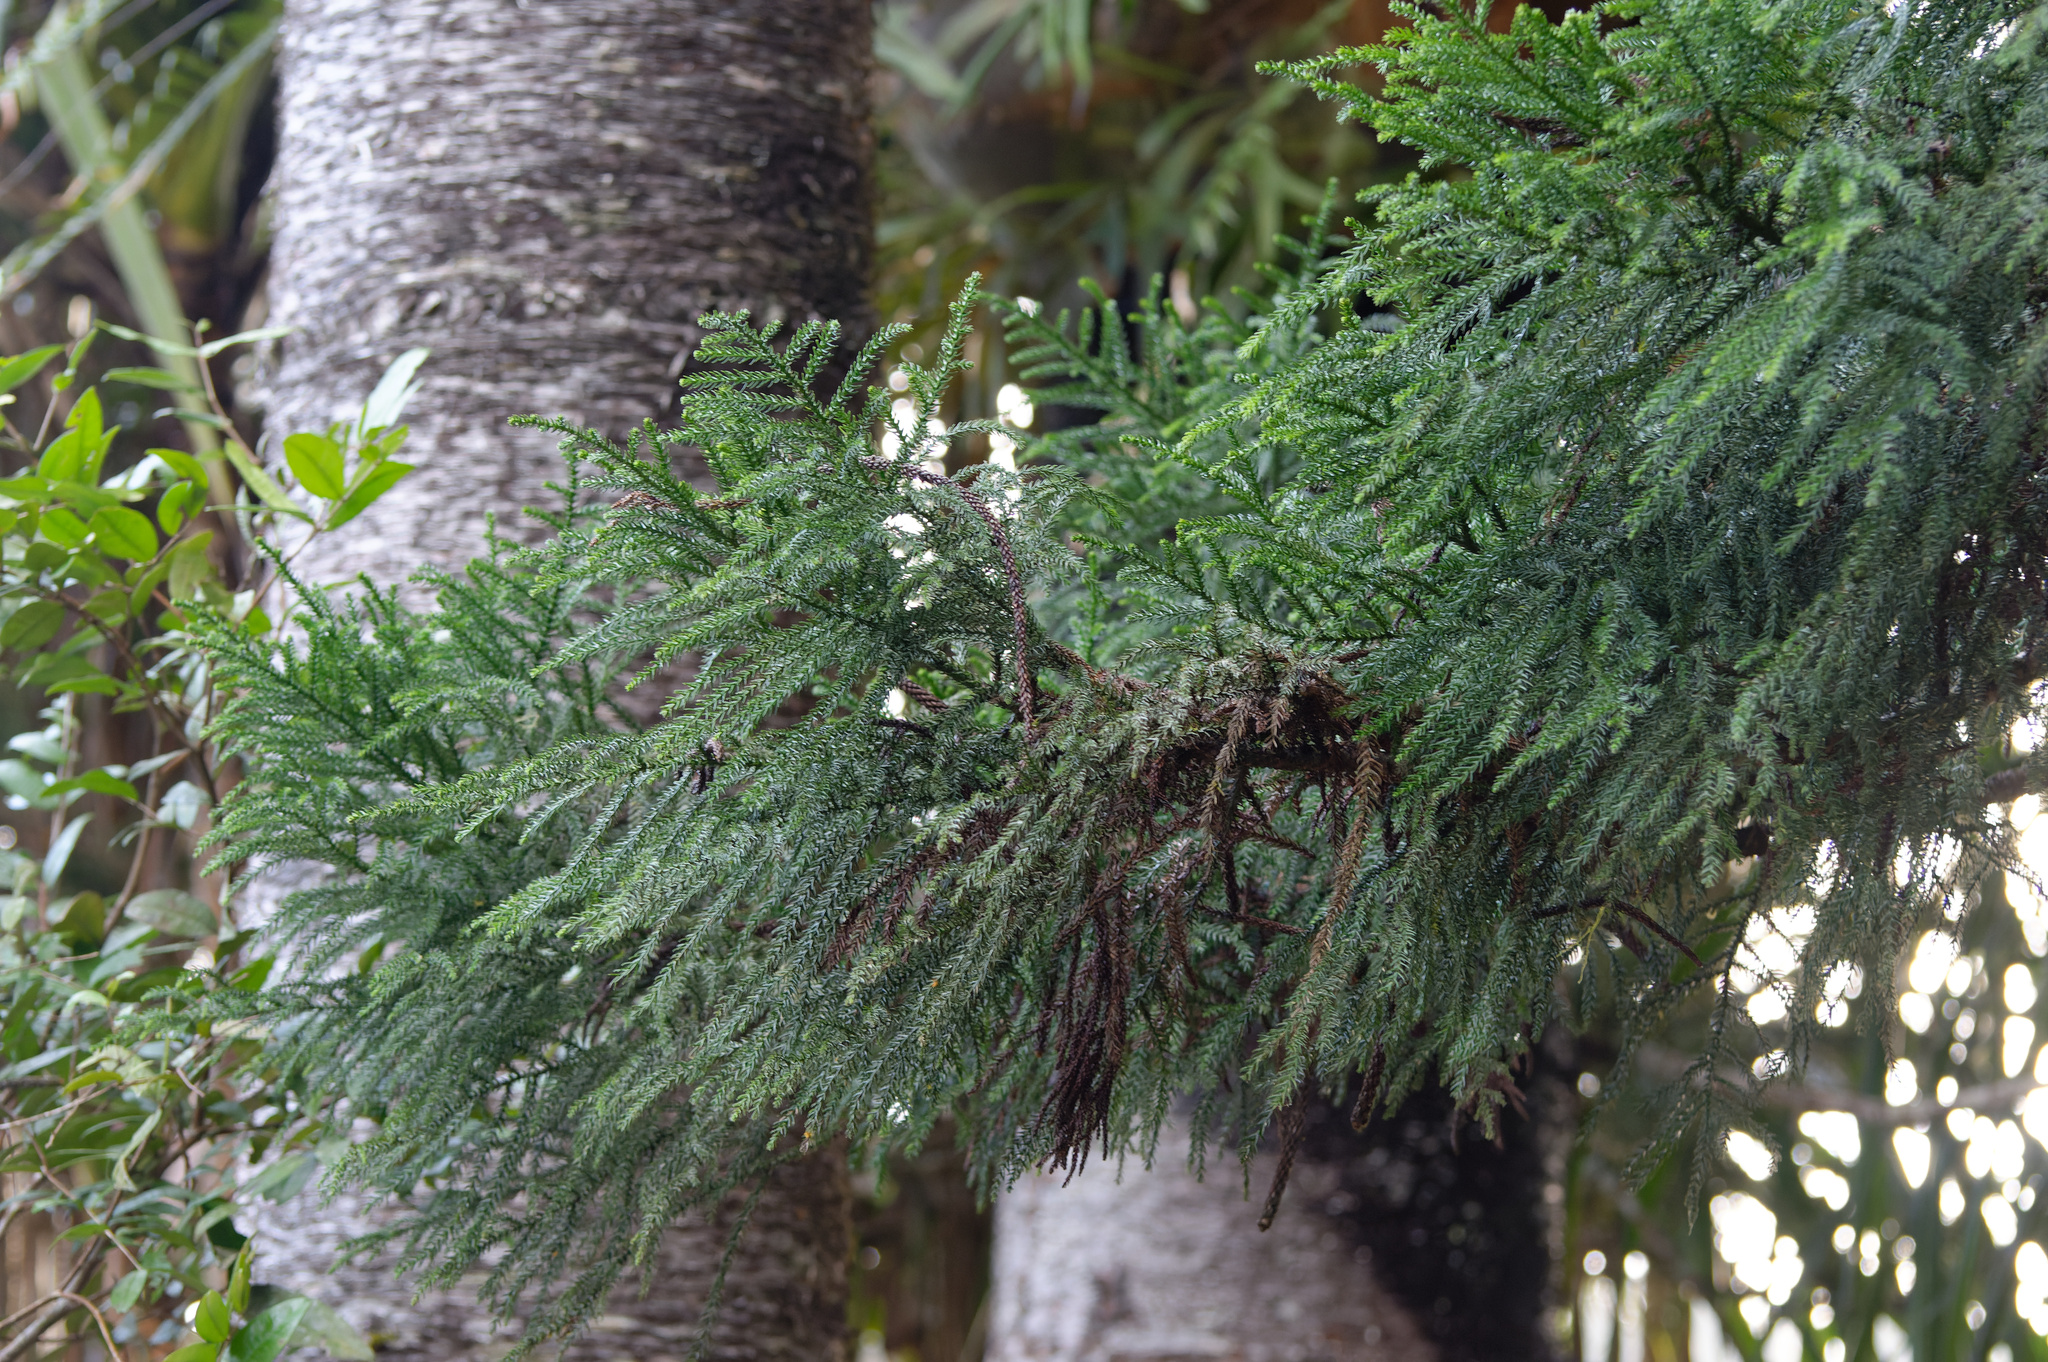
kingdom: Plantae
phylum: Tracheophyta
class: Pinopsida
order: Pinales
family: Araucariaceae
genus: Araucaria
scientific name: Araucaria cunninghamii
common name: Colonial pine
